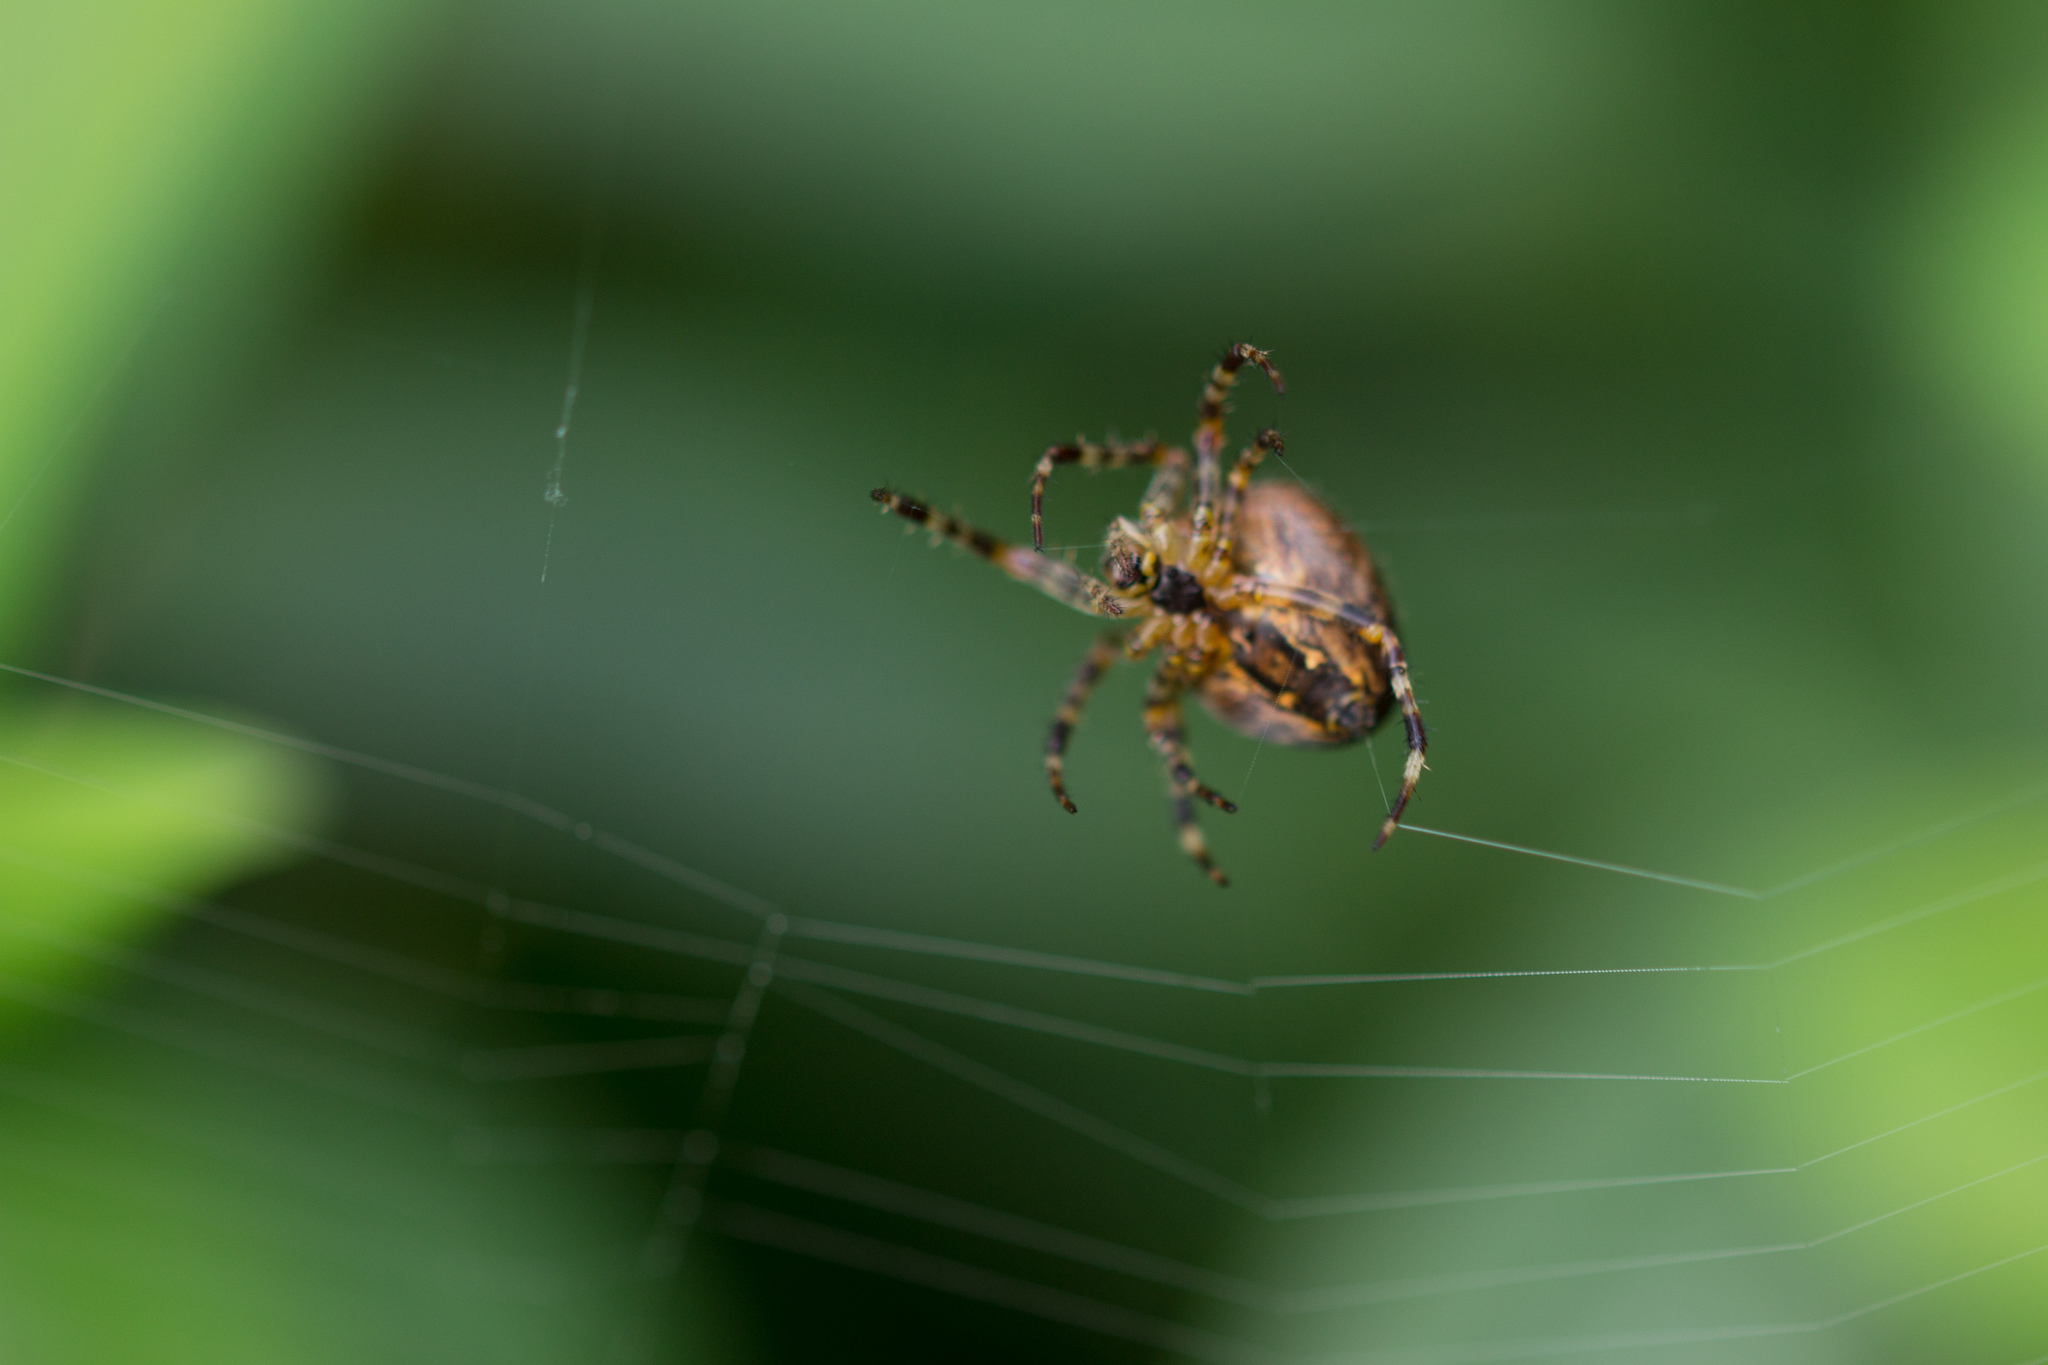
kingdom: Animalia
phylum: Arthropoda
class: Arachnida
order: Araneae
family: Araneidae
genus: Araneus
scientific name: Araneus diadematus
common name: Cross orbweaver
